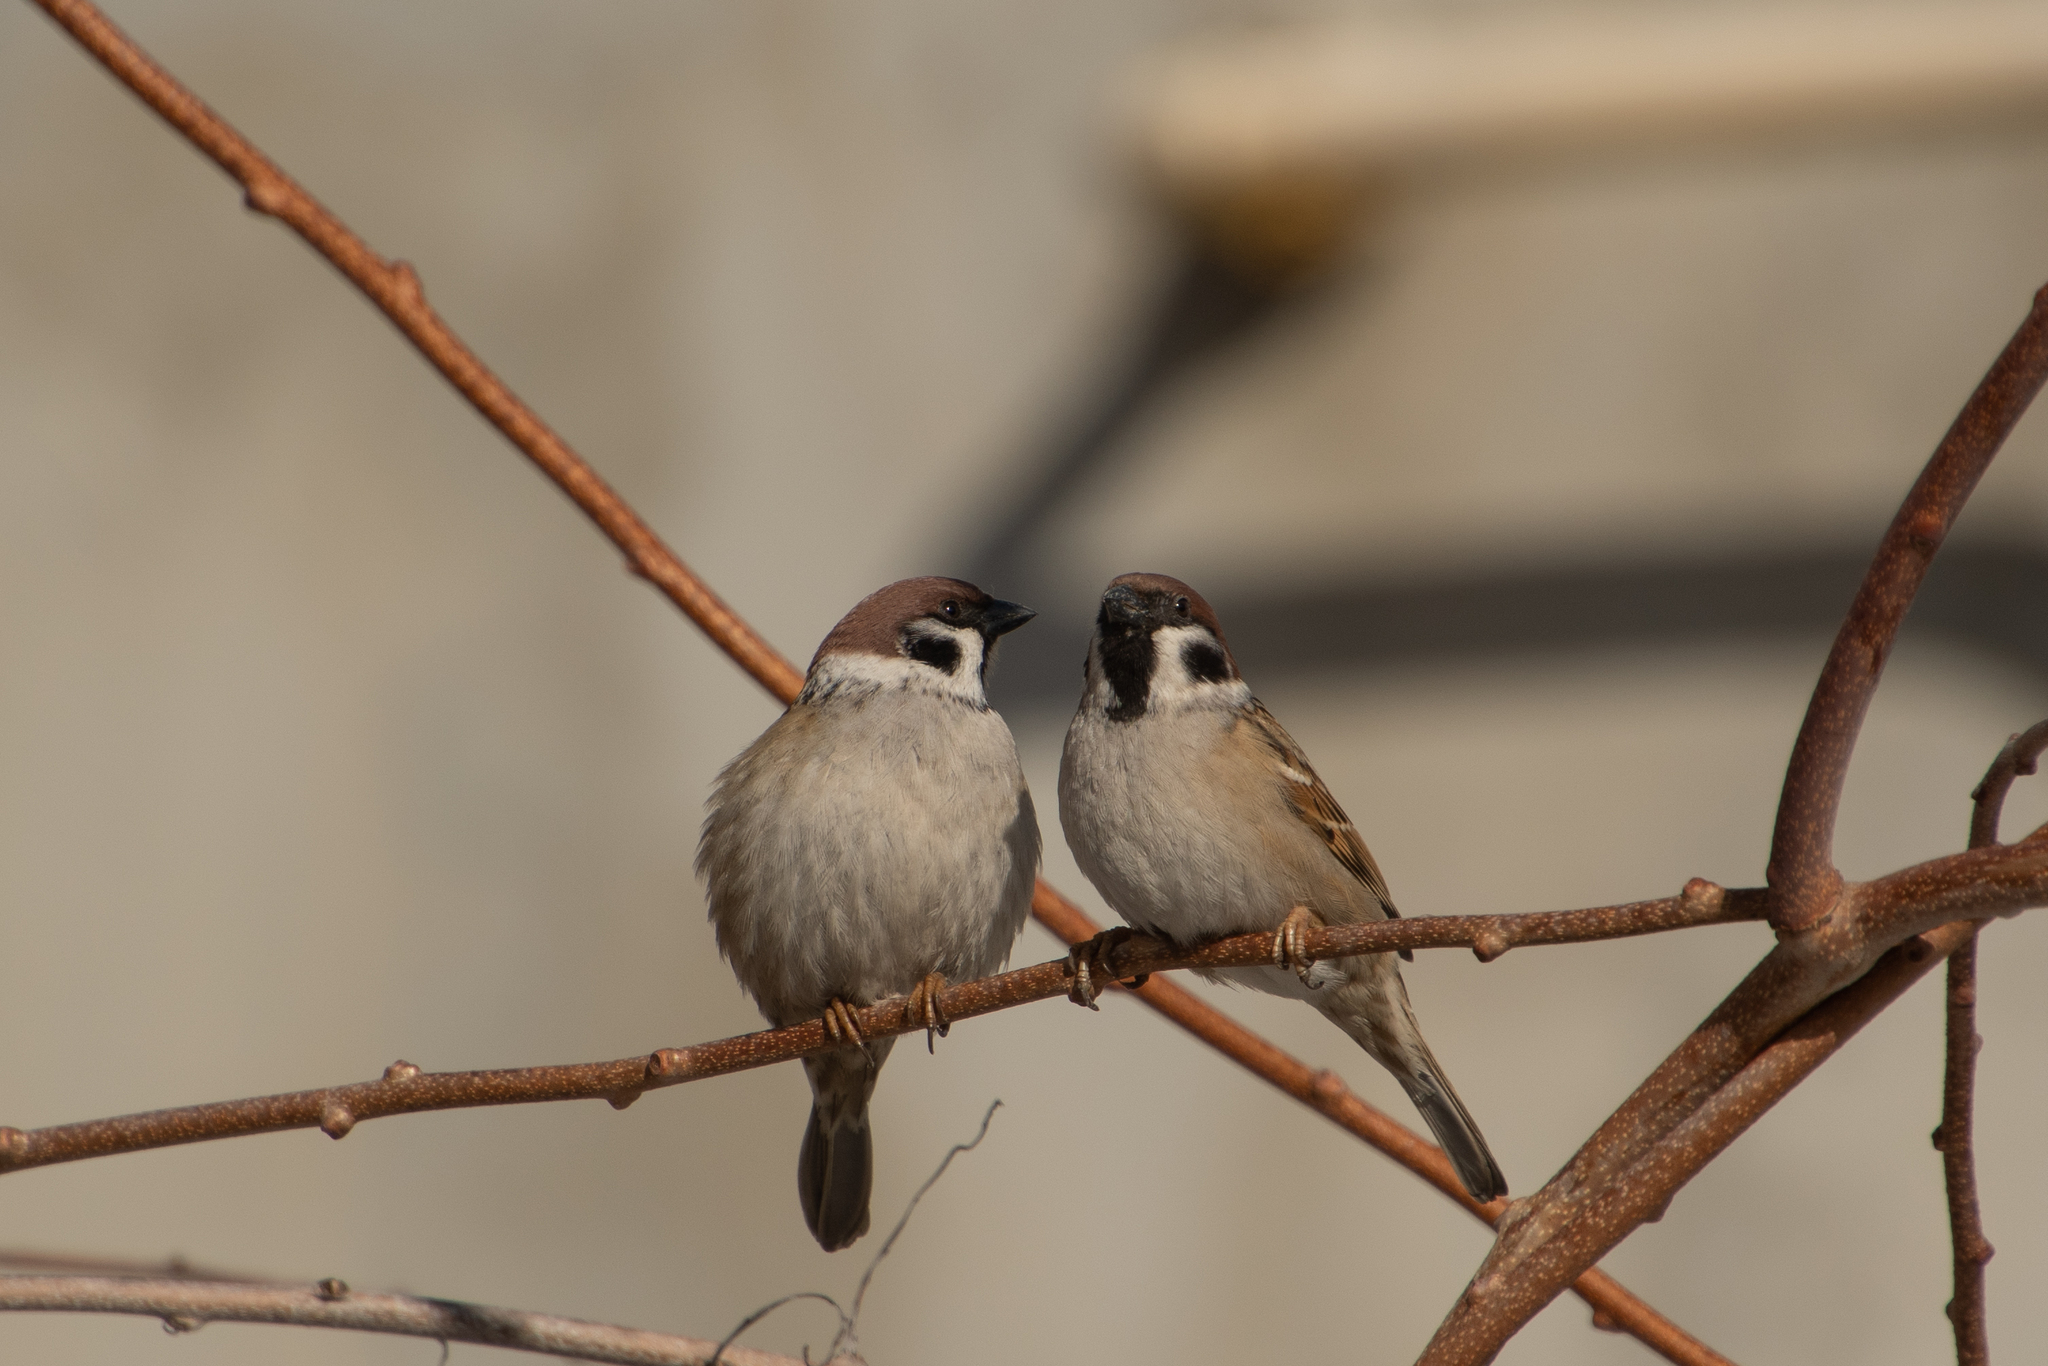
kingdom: Animalia
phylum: Chordata
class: Aves
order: Passeriformes
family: Passeridae
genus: Passer
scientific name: Passer montanus
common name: Eurasian tree sparrow
